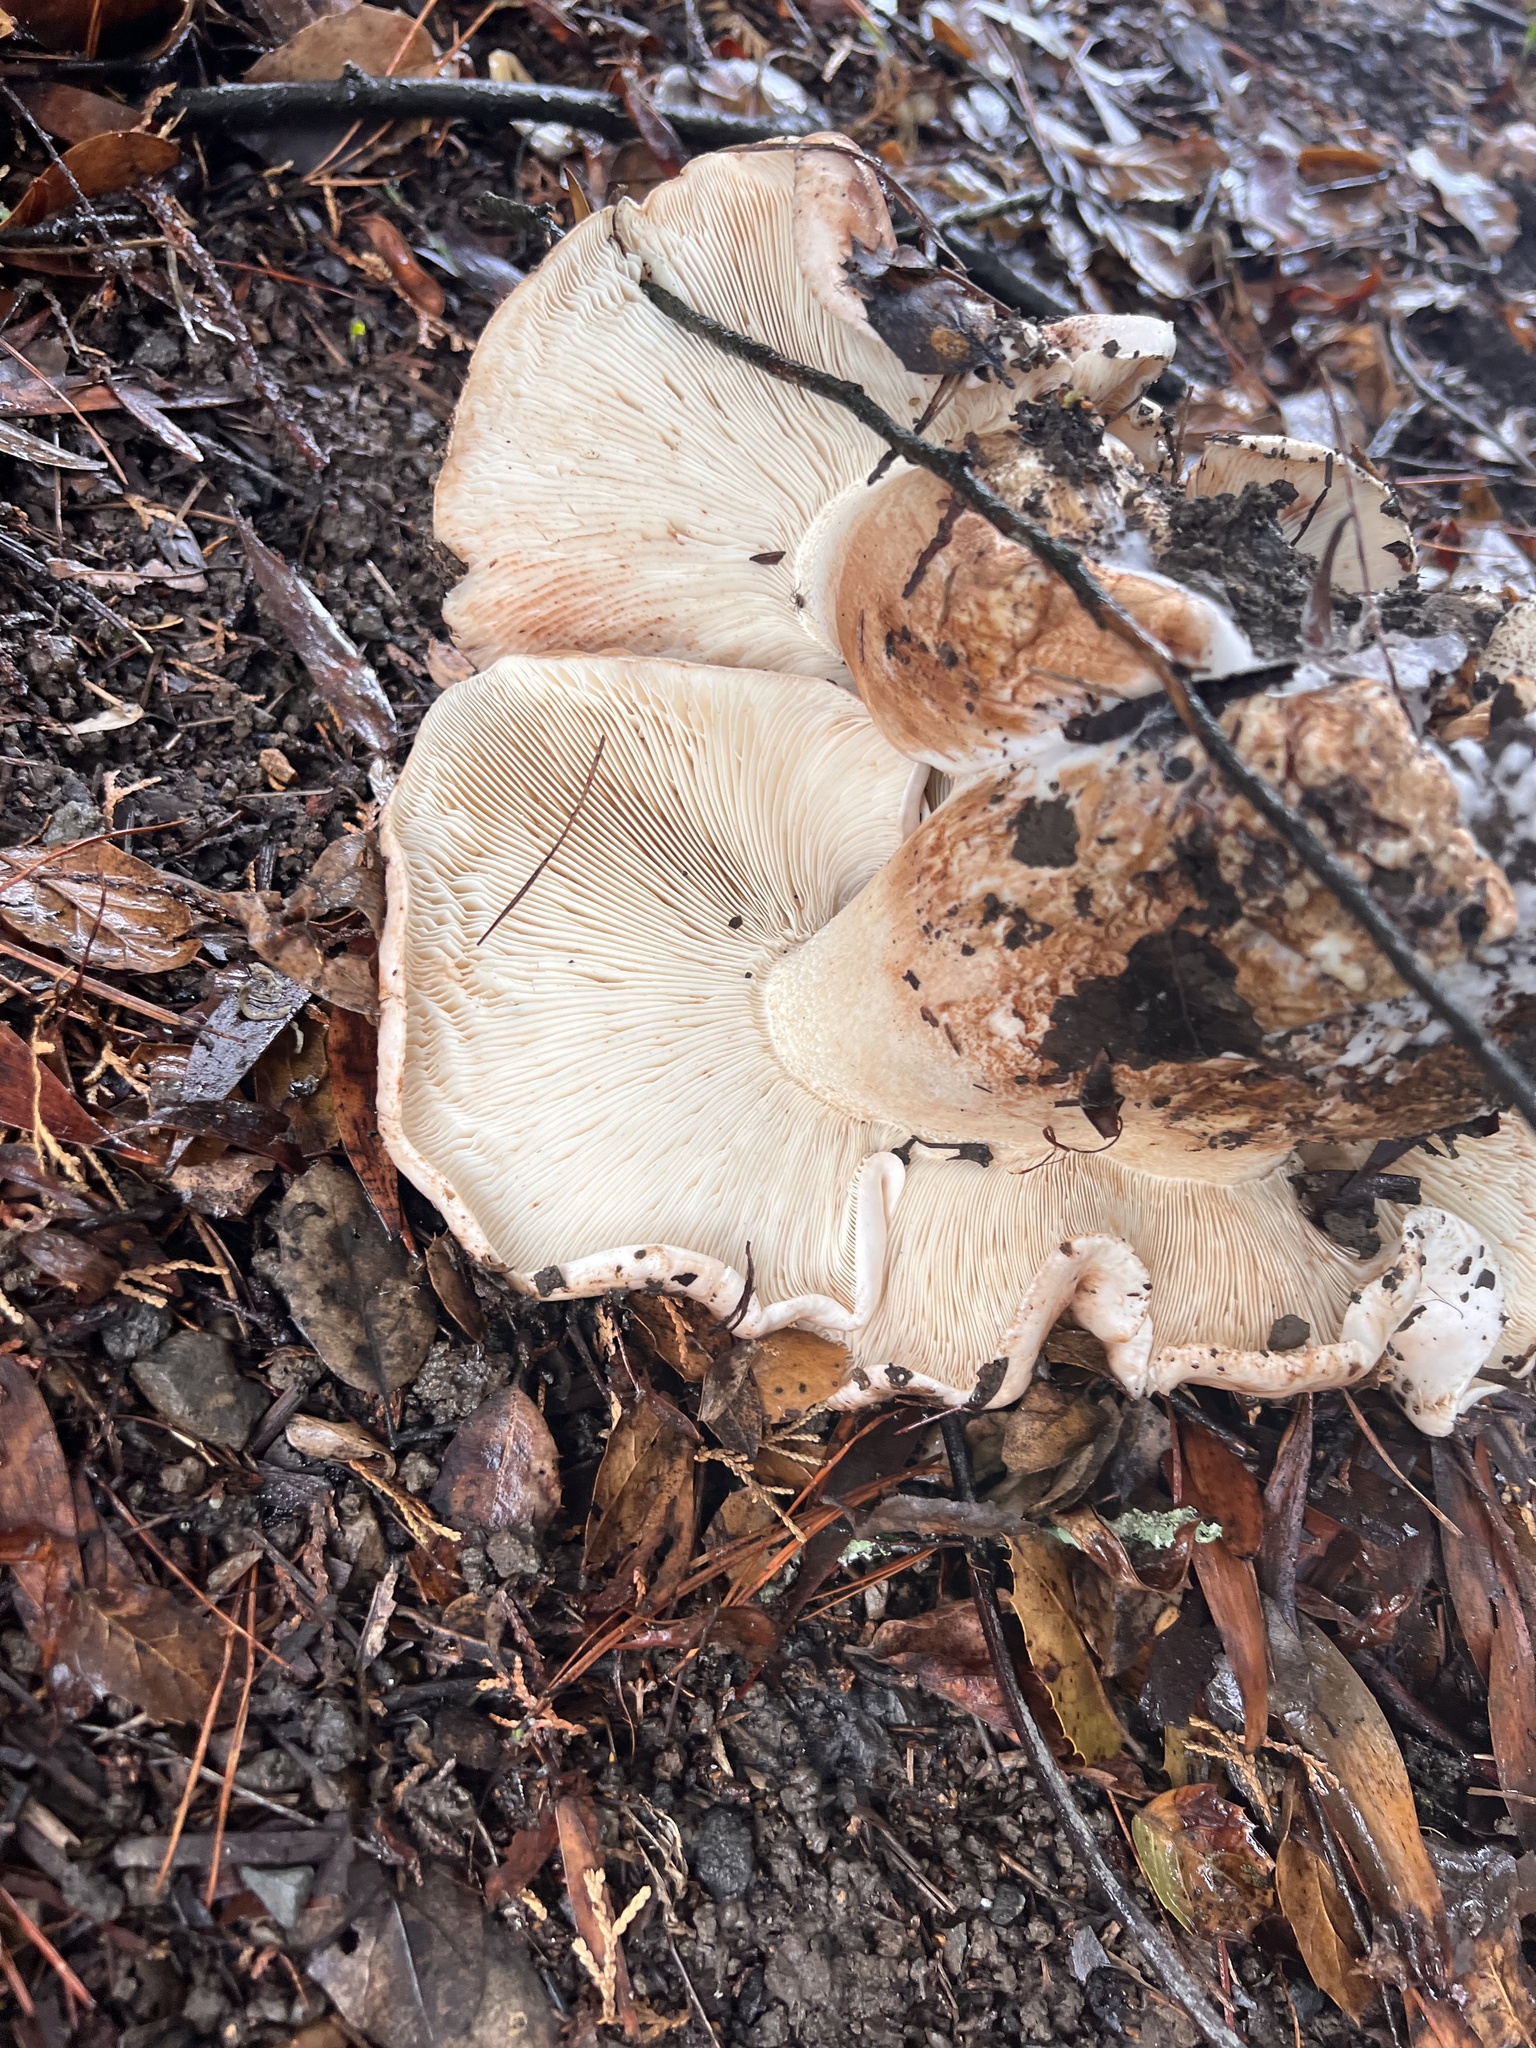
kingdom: Fungi
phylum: Basidiomycota
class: Agaricomycetes
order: Agaricales
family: Tricholomataceae
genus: Melanoleuca
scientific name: Melanoleuca dryophila
